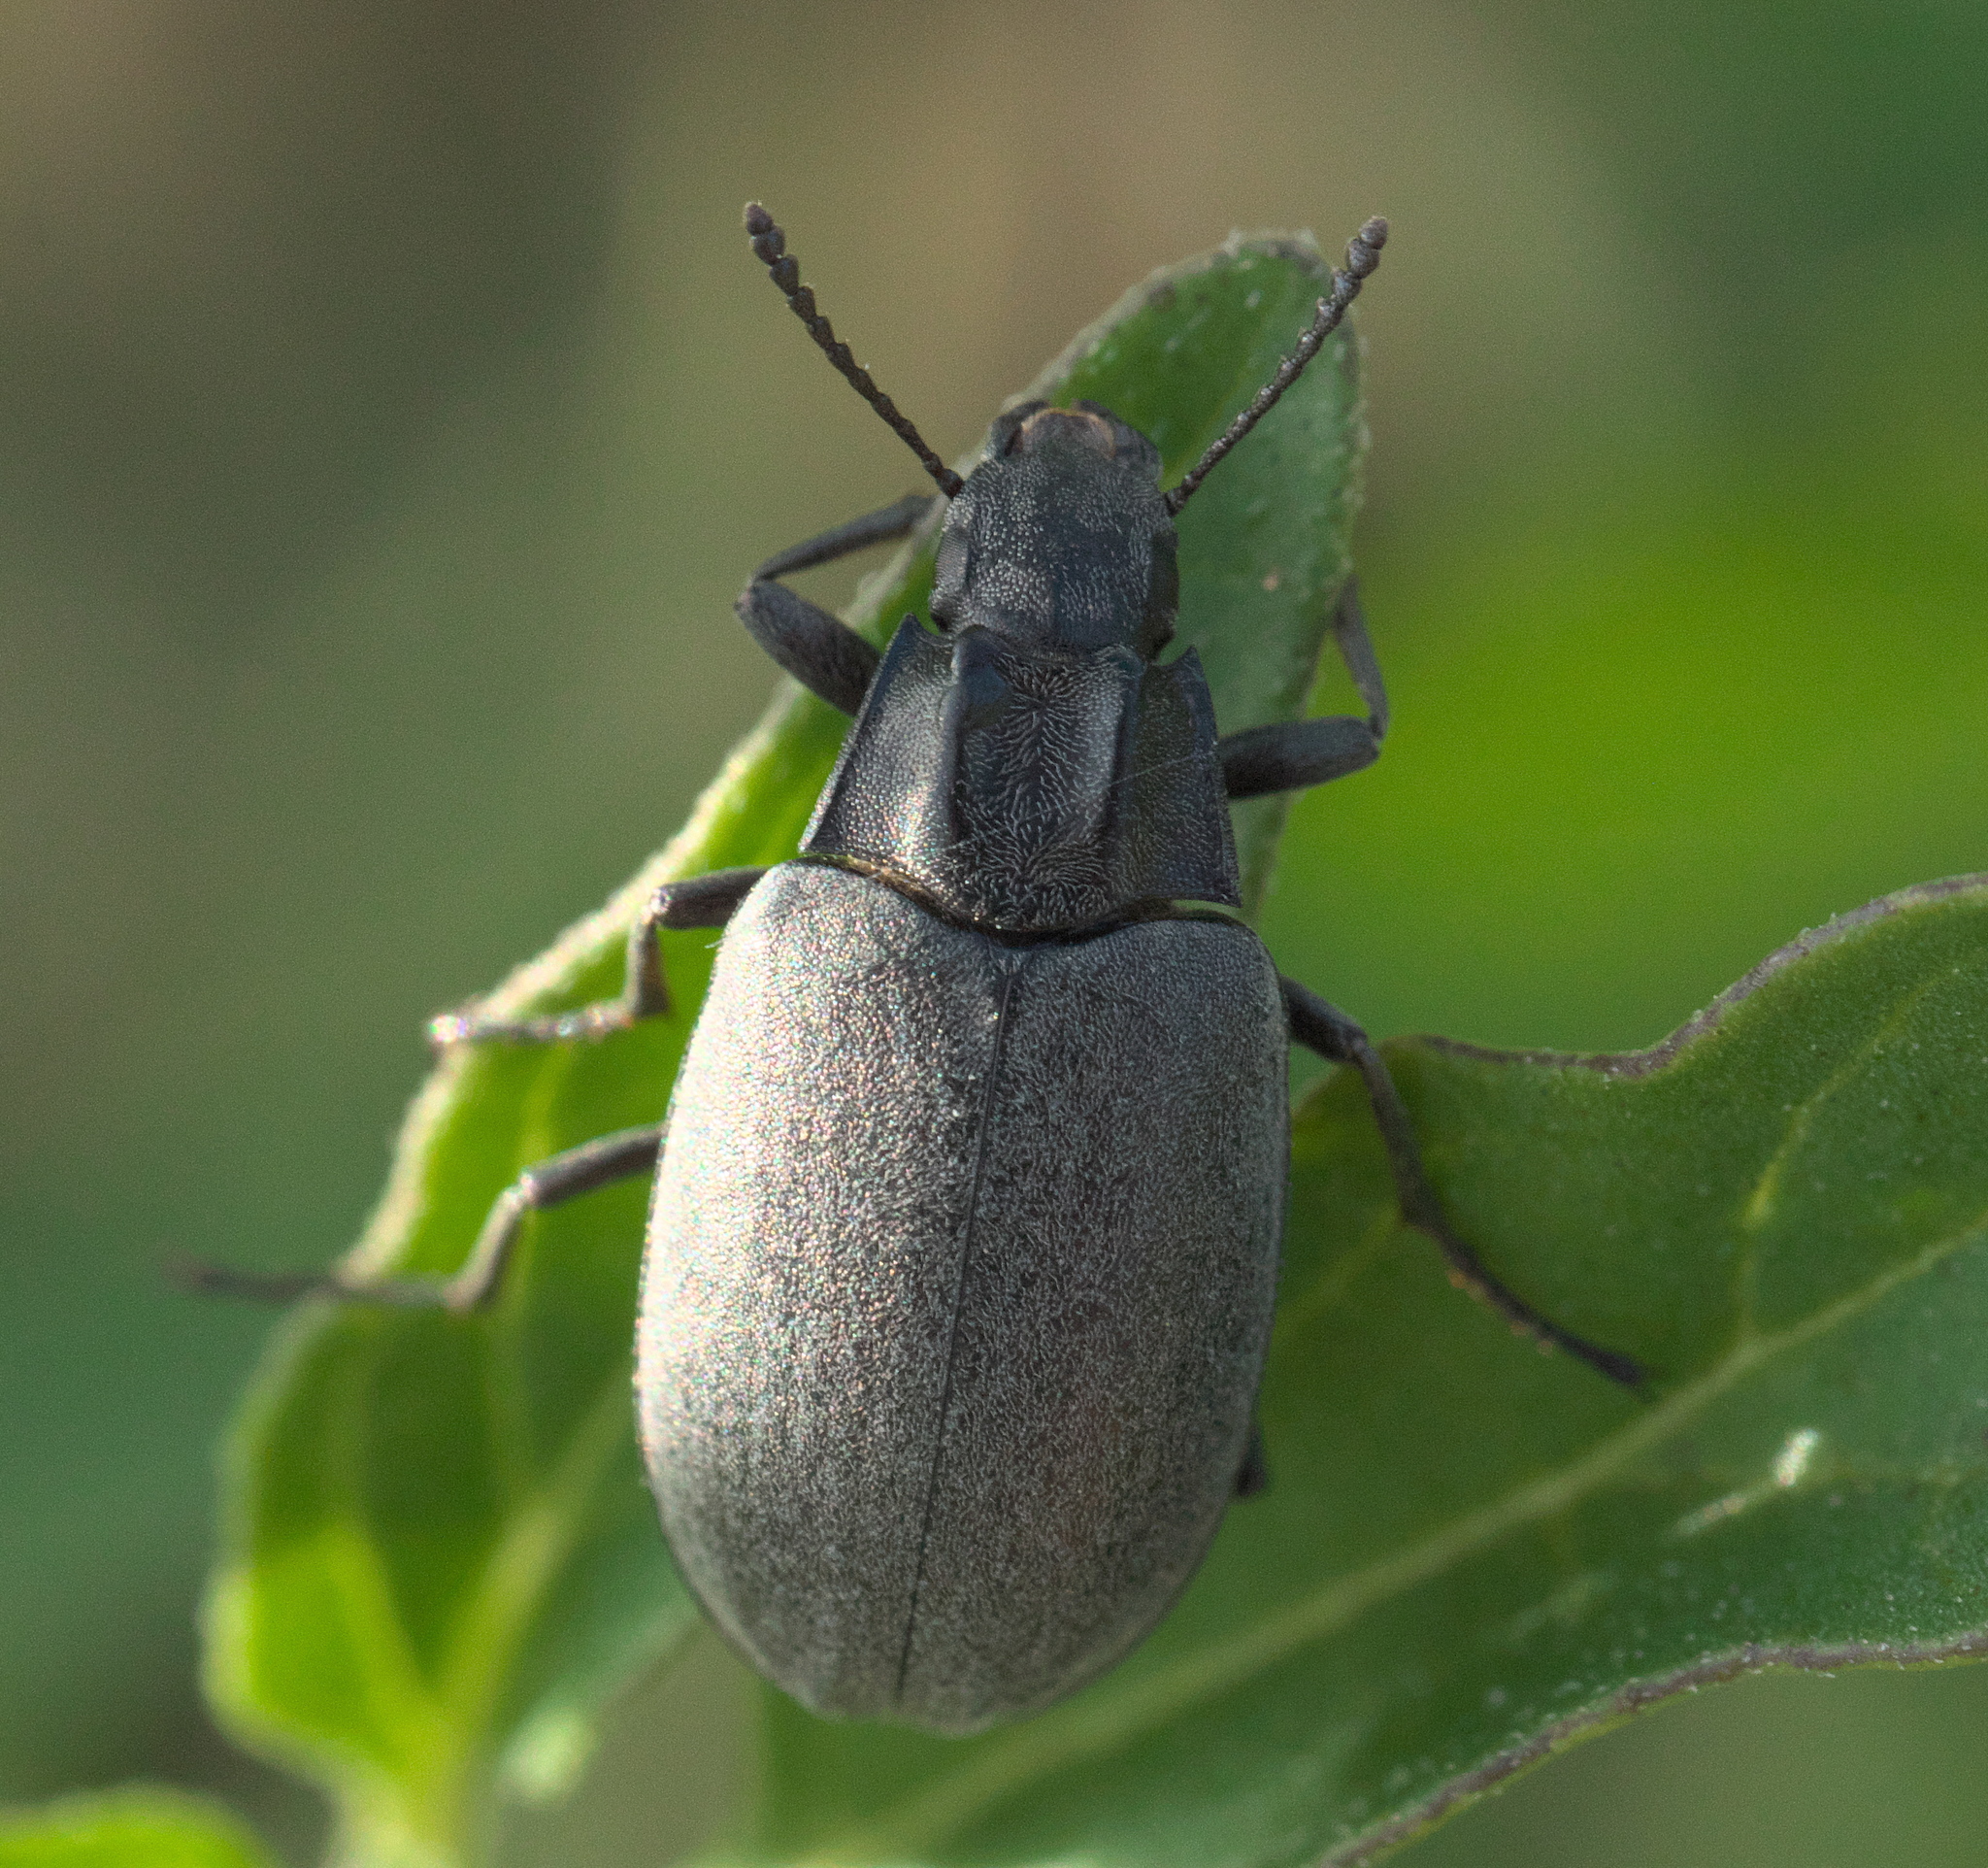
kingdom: Animalia
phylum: Arthropoda
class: Insecta
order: Coleoptera
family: Tenebrionidae
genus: Bothrotes
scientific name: Bothrotes canaliculatus
